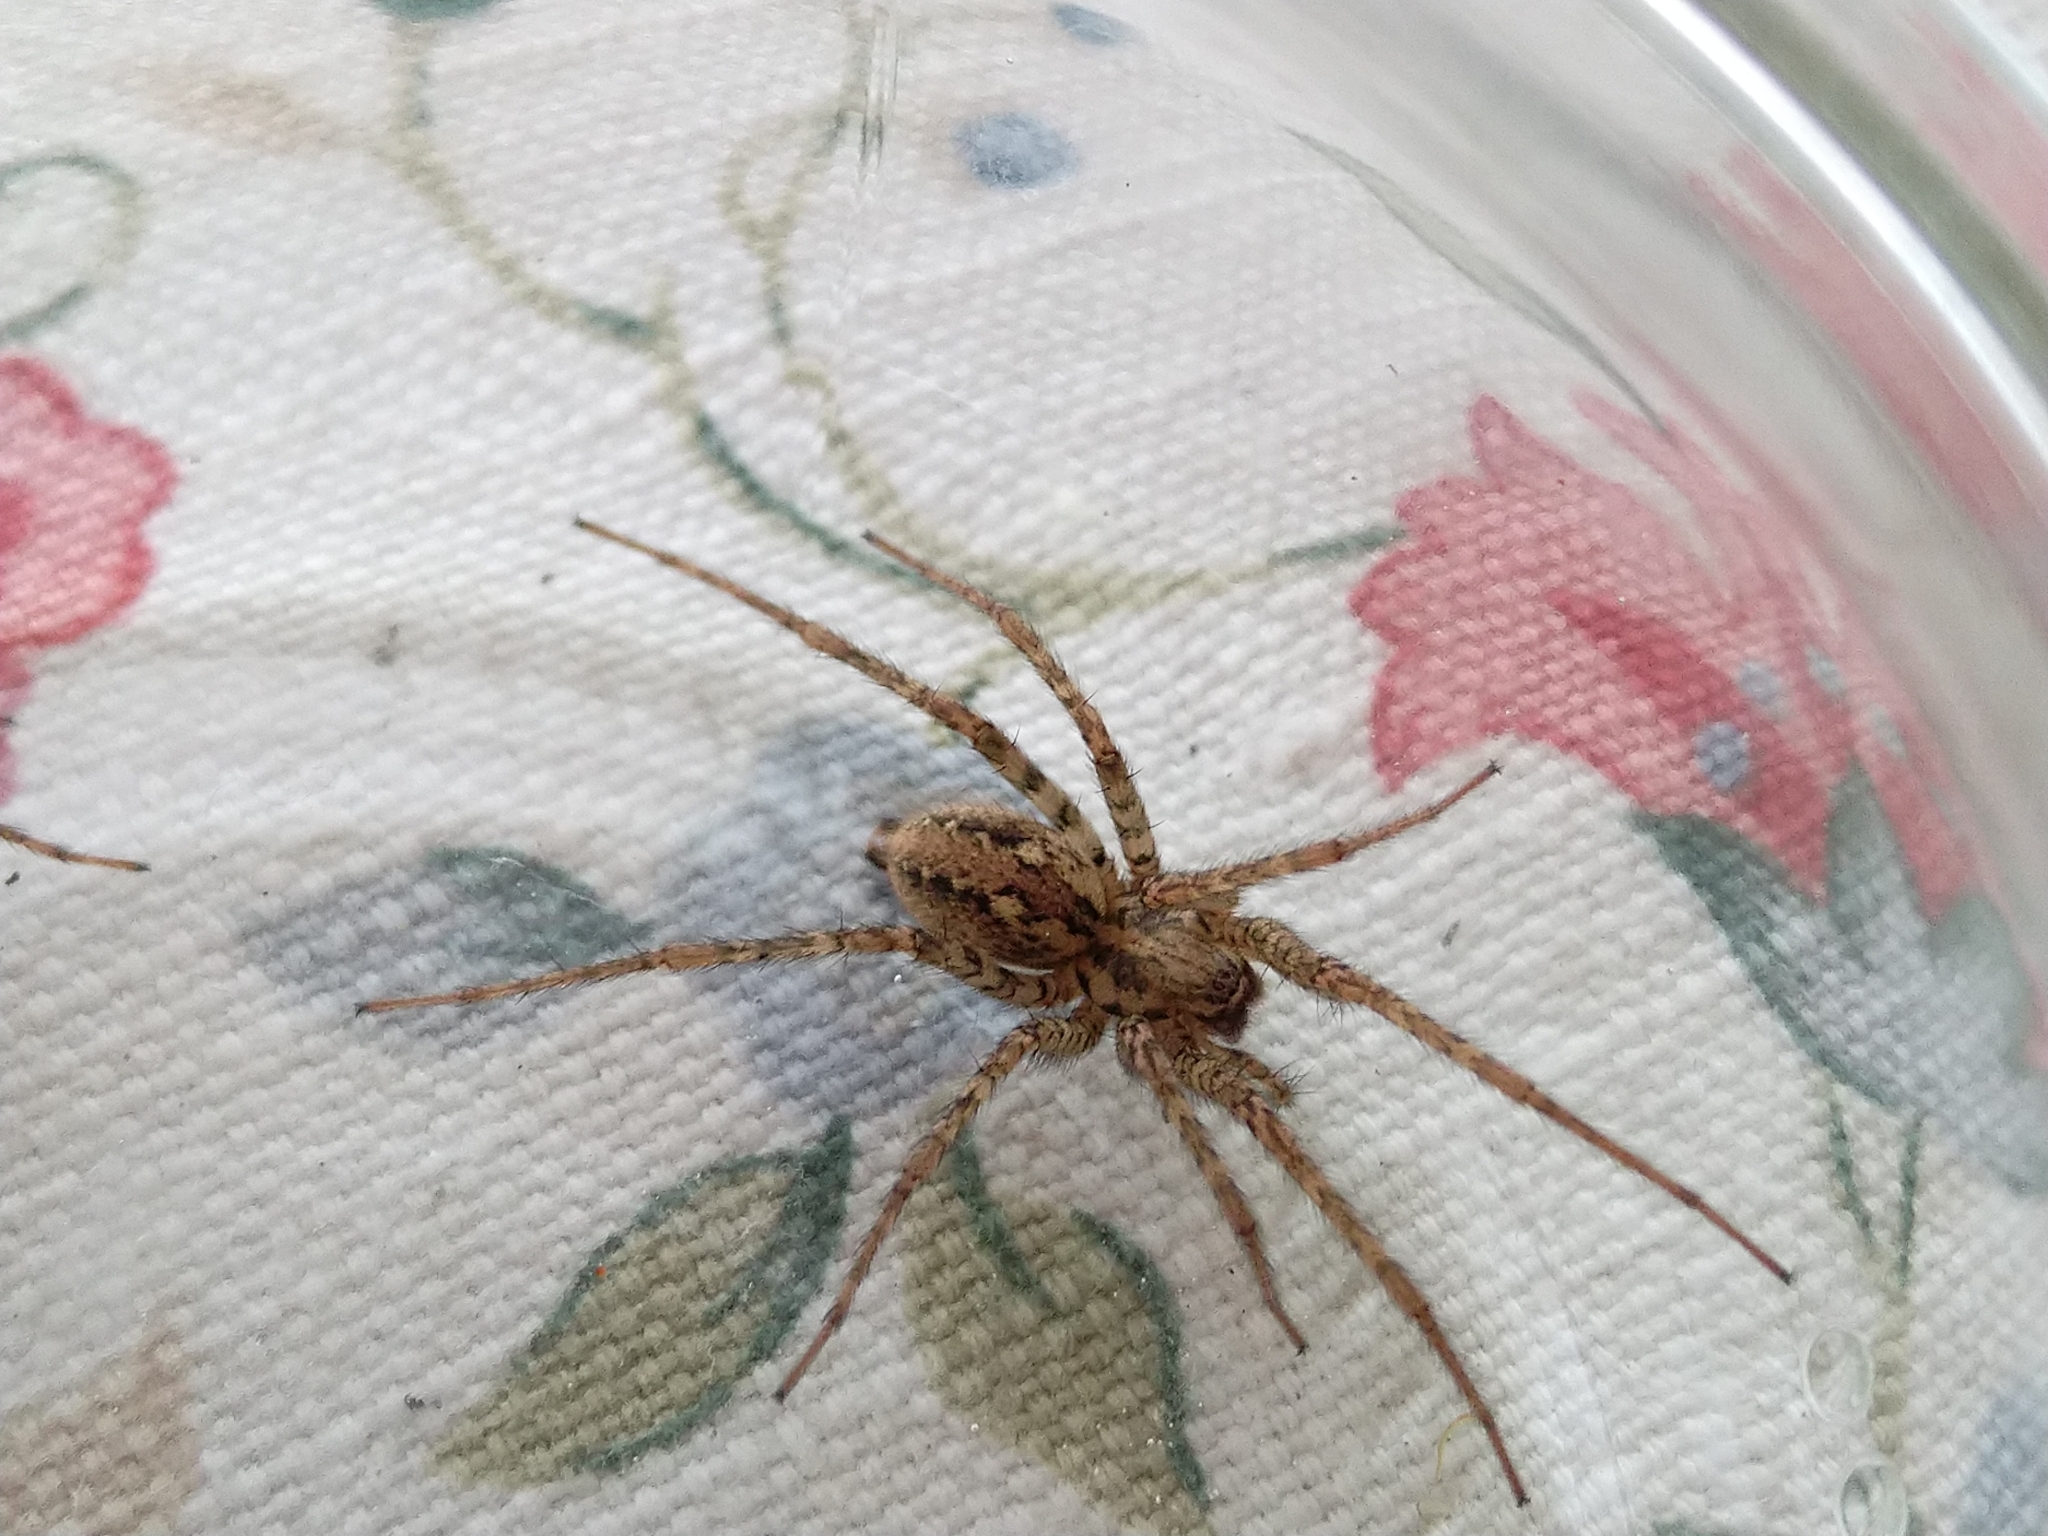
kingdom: Animalia
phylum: Arthropoda
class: Arachnida
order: Araneae
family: Agelenidae
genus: Tegenaria
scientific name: Tegenaria ferruginea
